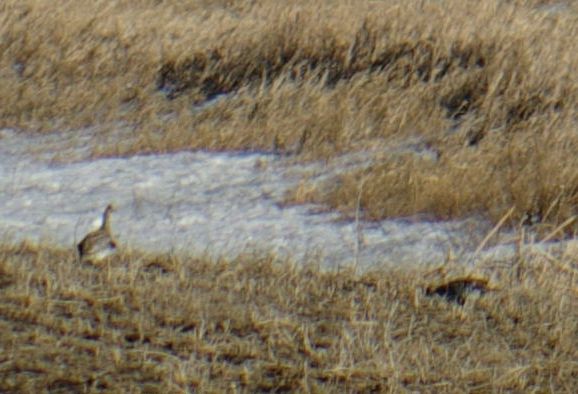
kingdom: Animalia
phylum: Chordata
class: Aves
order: Galliformes
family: Phasianidae
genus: Tympanuchus
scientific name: Tympanuchus phasianellus
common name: Sharp-tailed grouse
